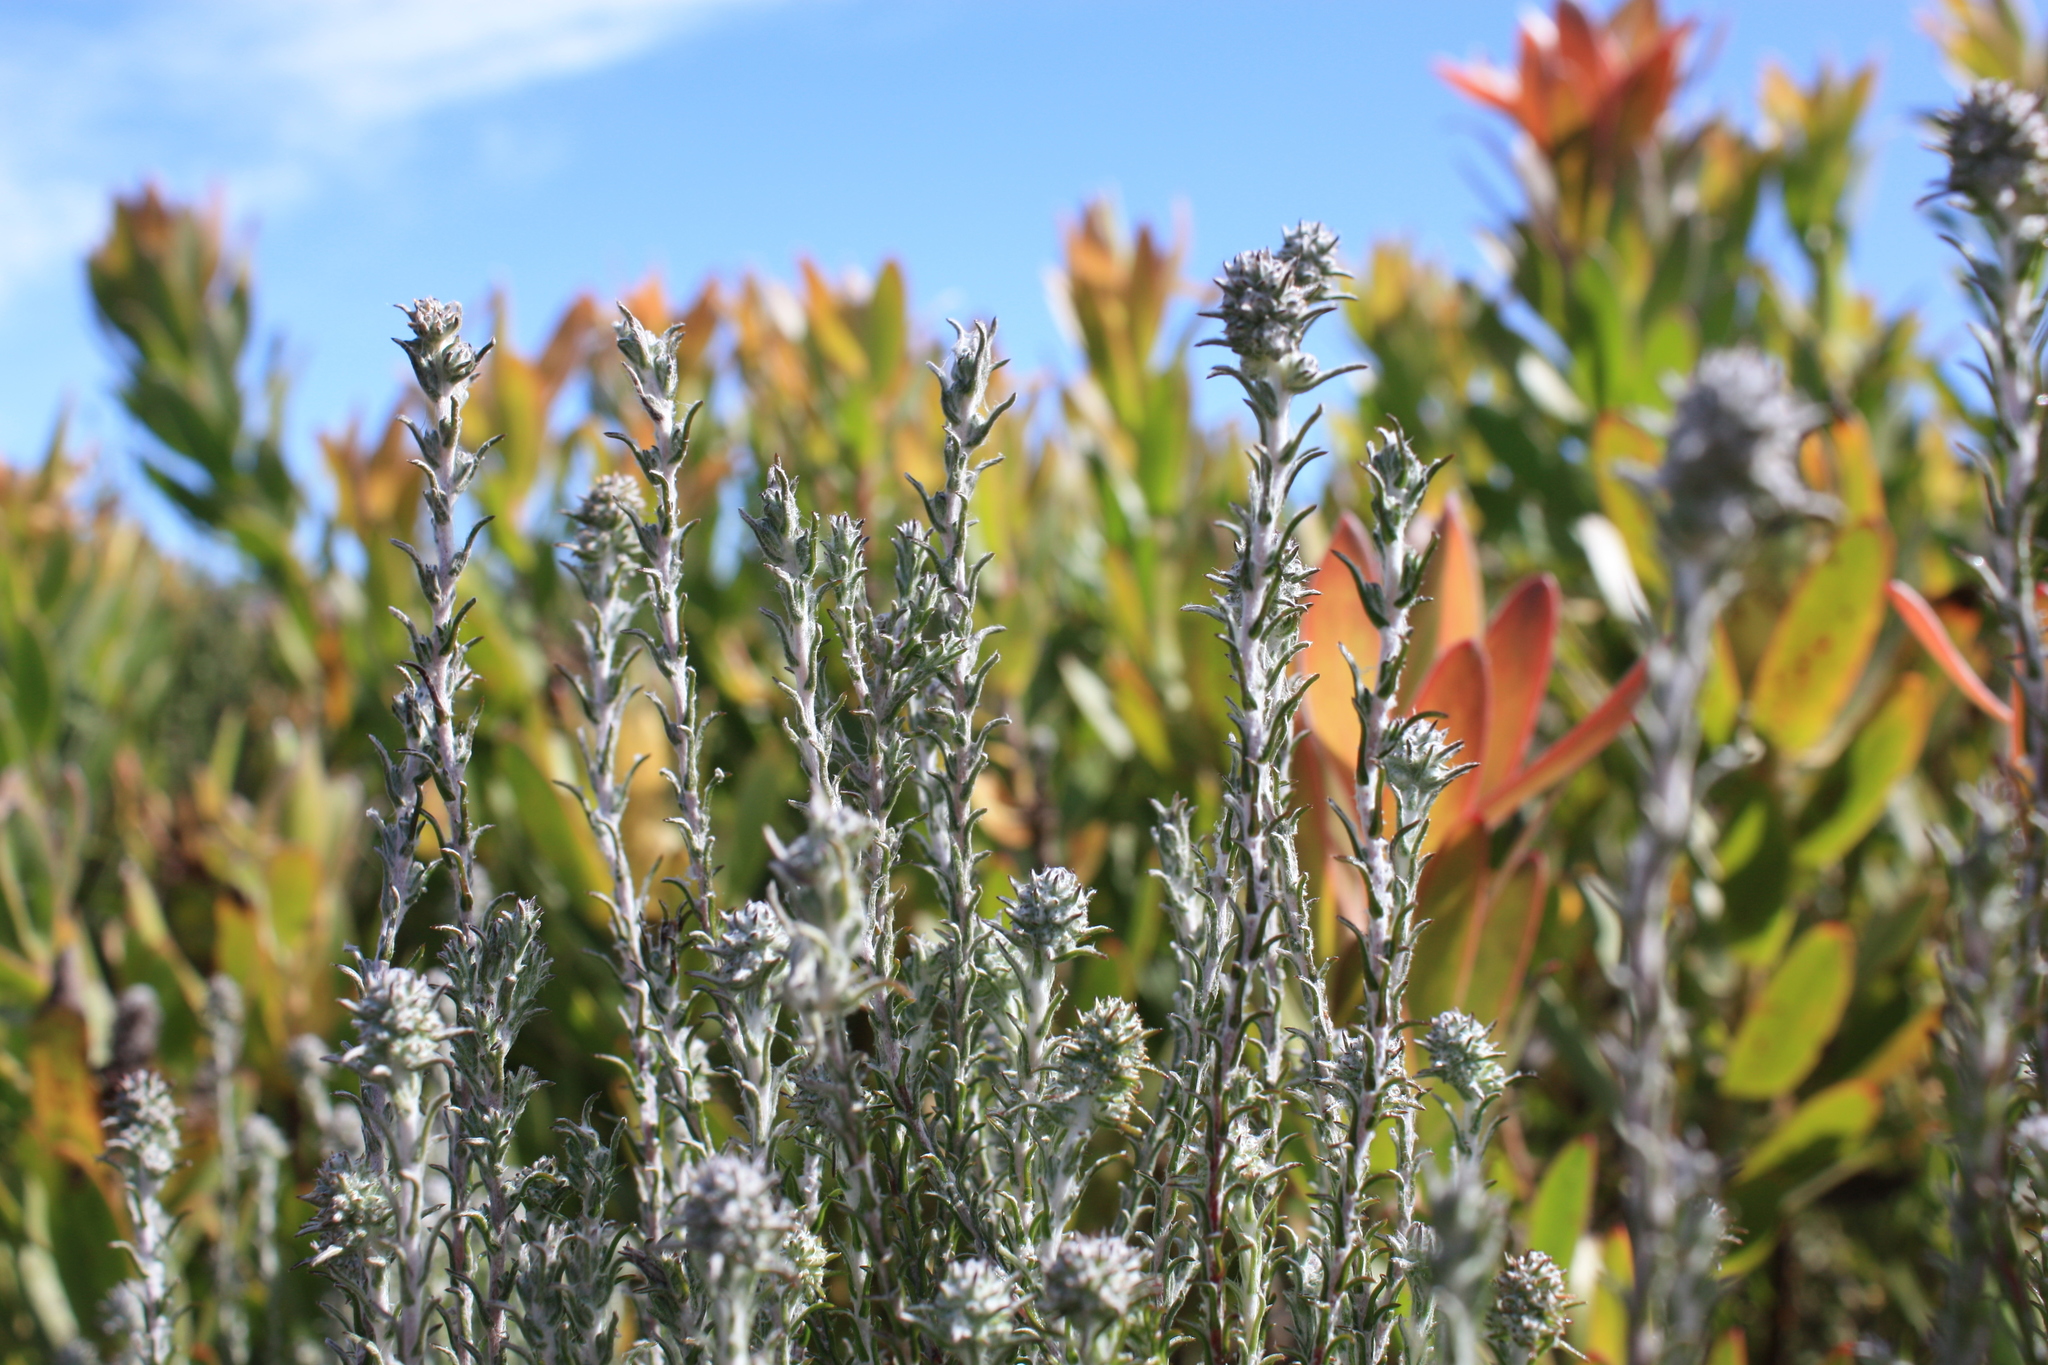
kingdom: Plantae
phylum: Tracheophyta
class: Magnoliopsida
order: Asterales
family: Asteraceae
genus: Seriphium
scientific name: Seriphium incanum
